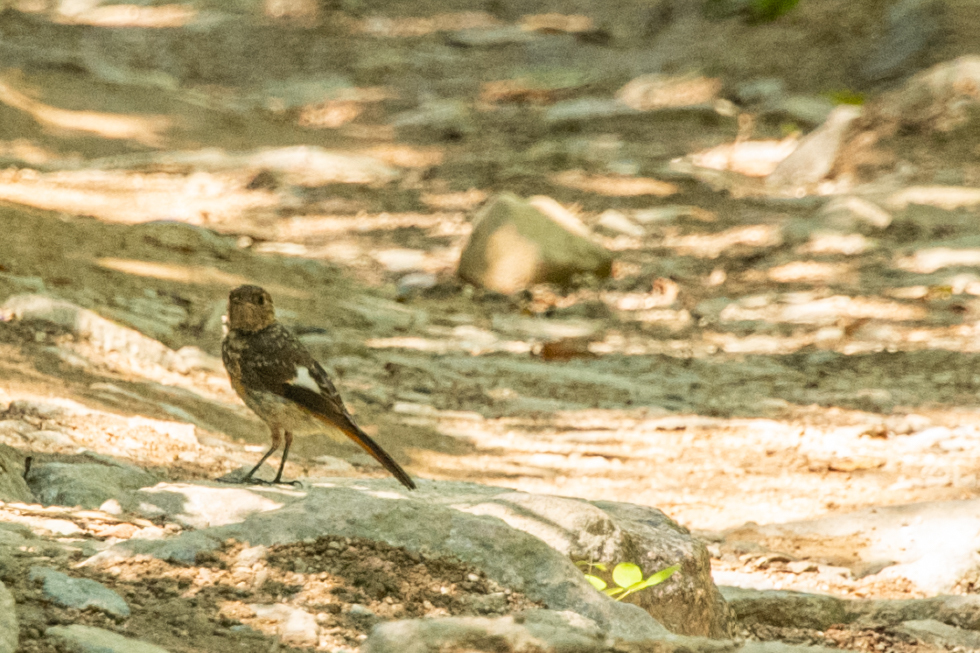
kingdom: Animalia
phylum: Chordata
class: Aves
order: Passeriformes
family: Muscicapidae
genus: Phoenicurus
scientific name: Phoenicurus auroreus
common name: Daurian redstart
